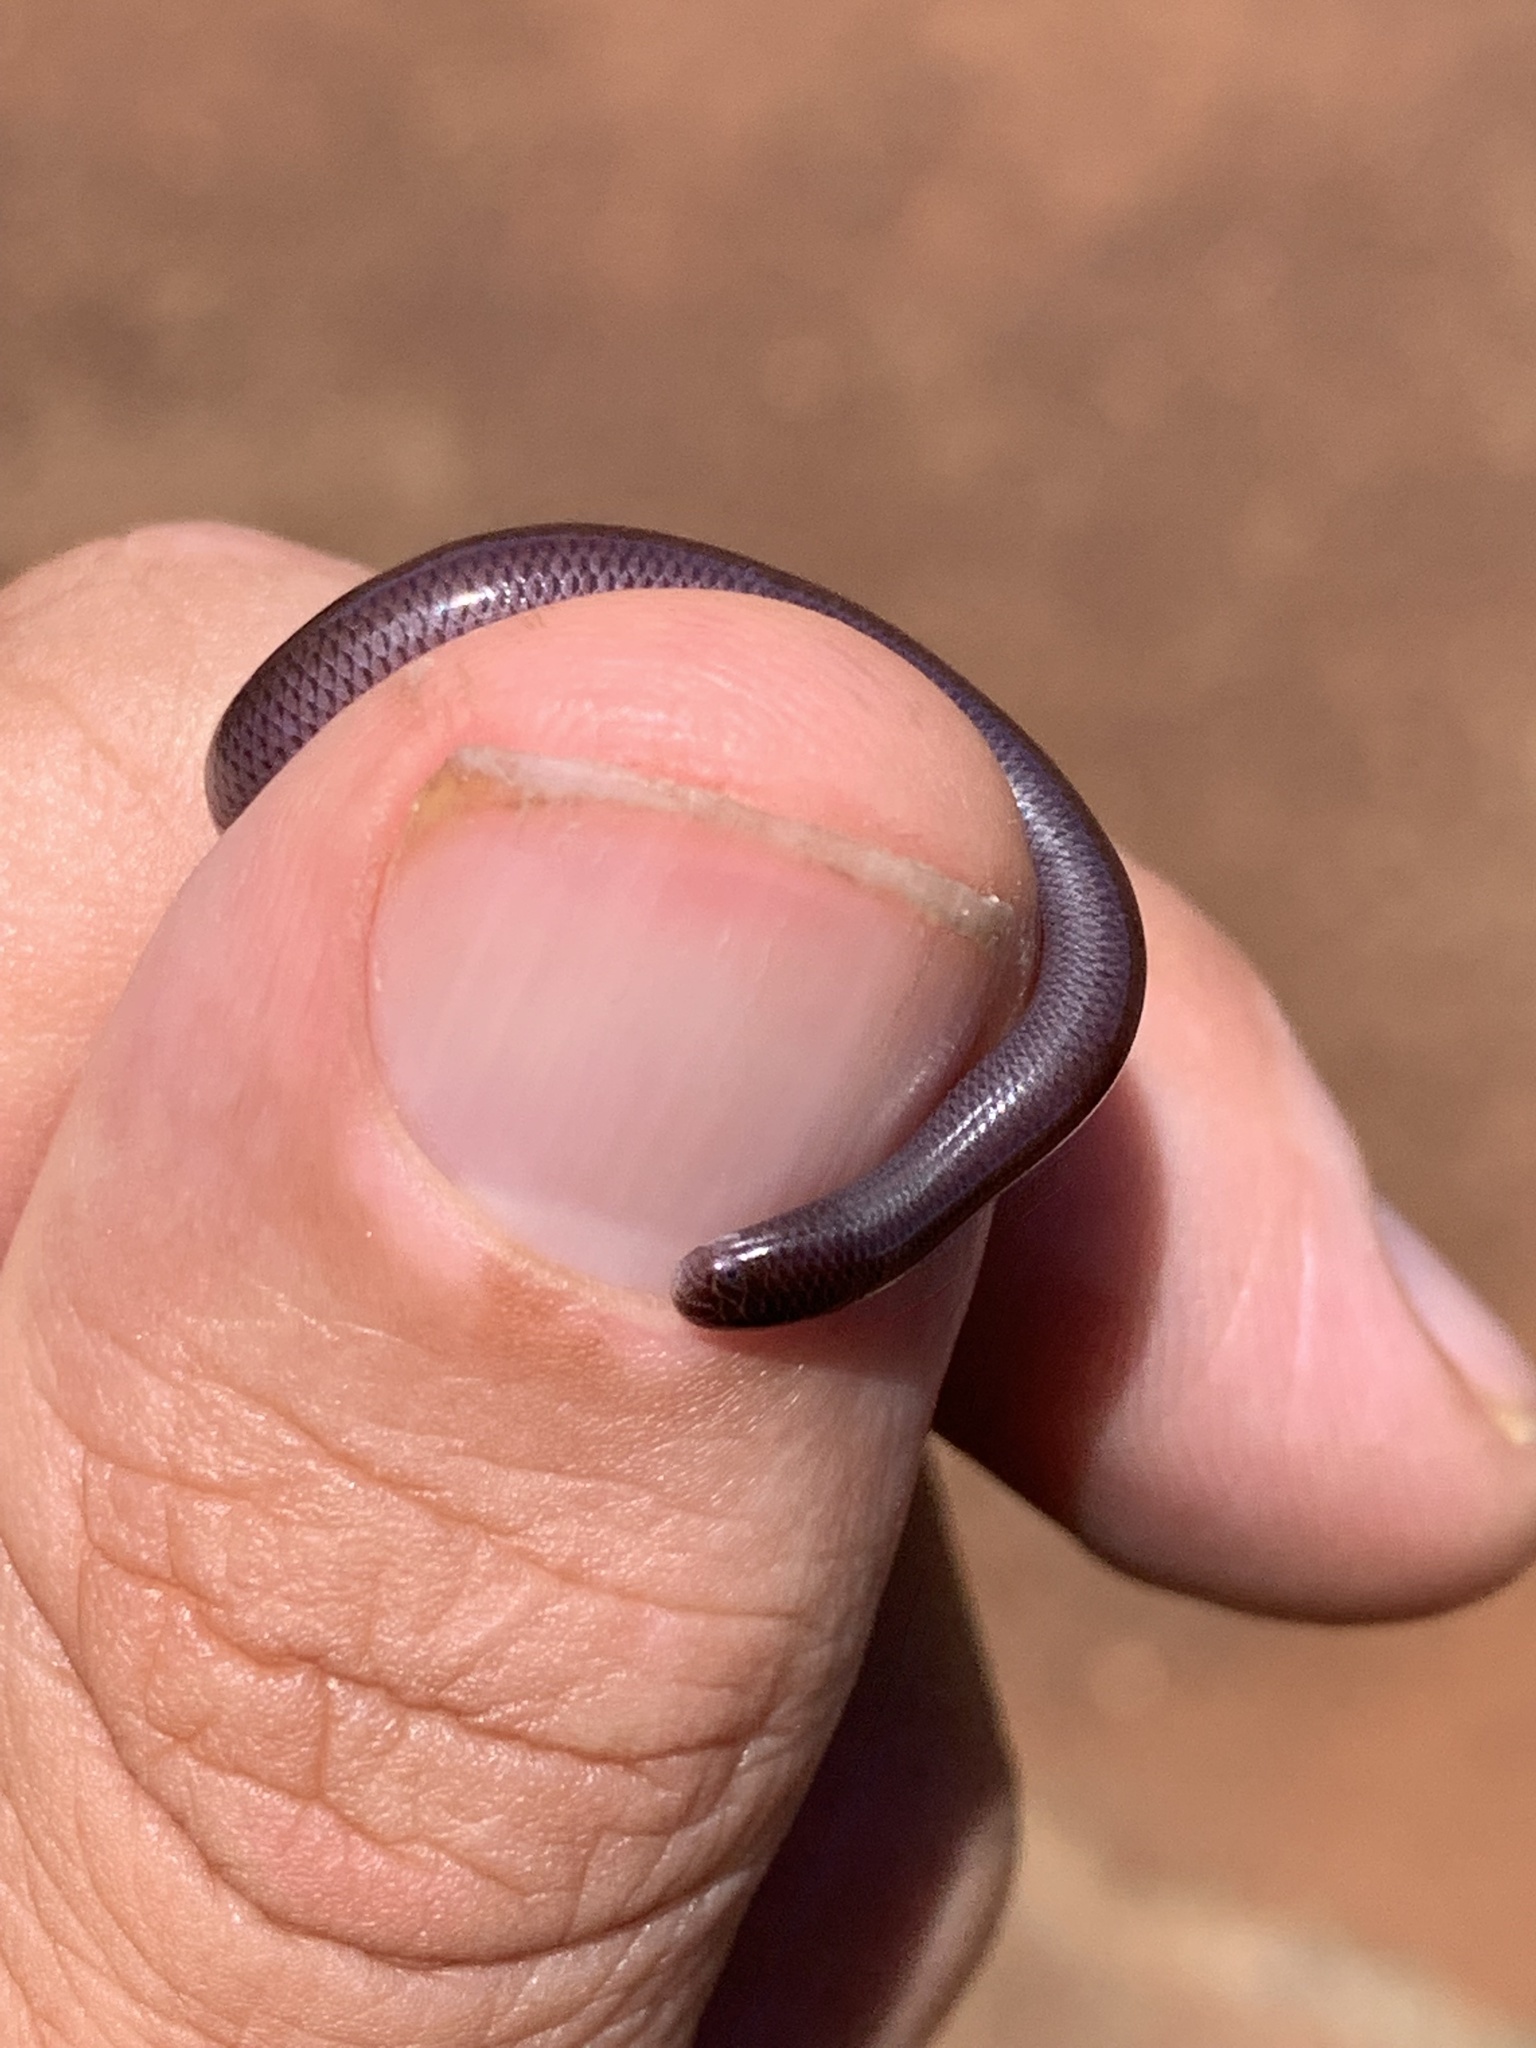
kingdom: Animalia
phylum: Chordata
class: Squamata
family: Typhlopidae
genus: Indotyphlops
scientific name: Indotyphlops braminus
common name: Brahminy blindsnake
